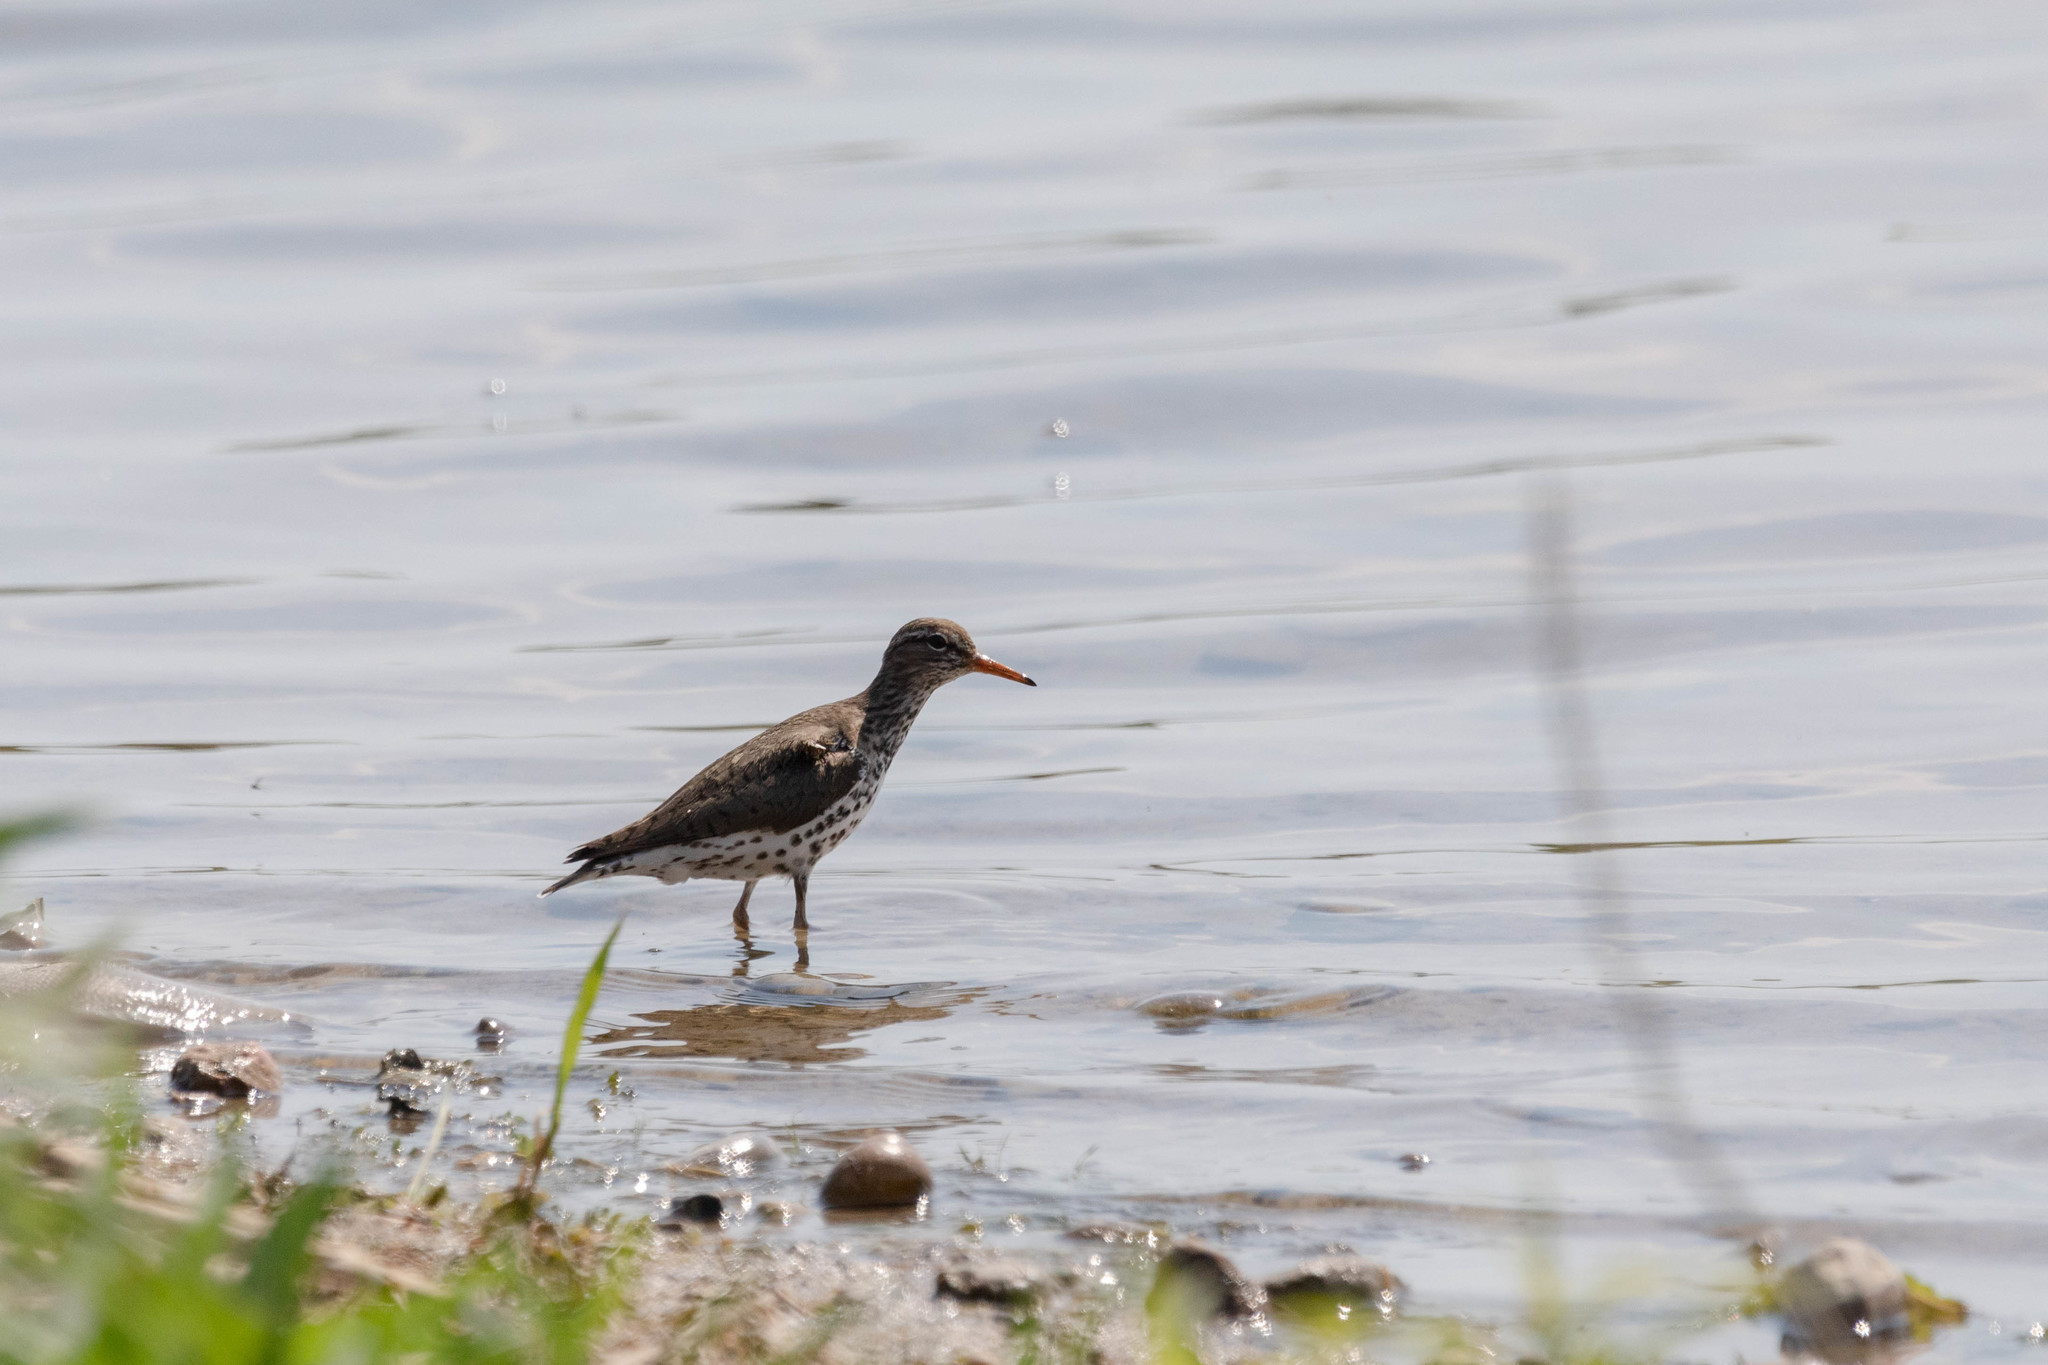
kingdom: Animalia
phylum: Chordata
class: Aves
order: Charadriiformes
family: Scolopacidae
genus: Actitis
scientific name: Actitis macularius
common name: Spotted sandpiper
